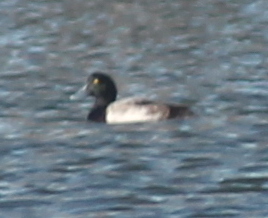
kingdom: Animalia
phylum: Chordata
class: Aves
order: Anseriformes
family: Anatidae
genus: Aythya
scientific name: Aythya marila
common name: Greater scaup
